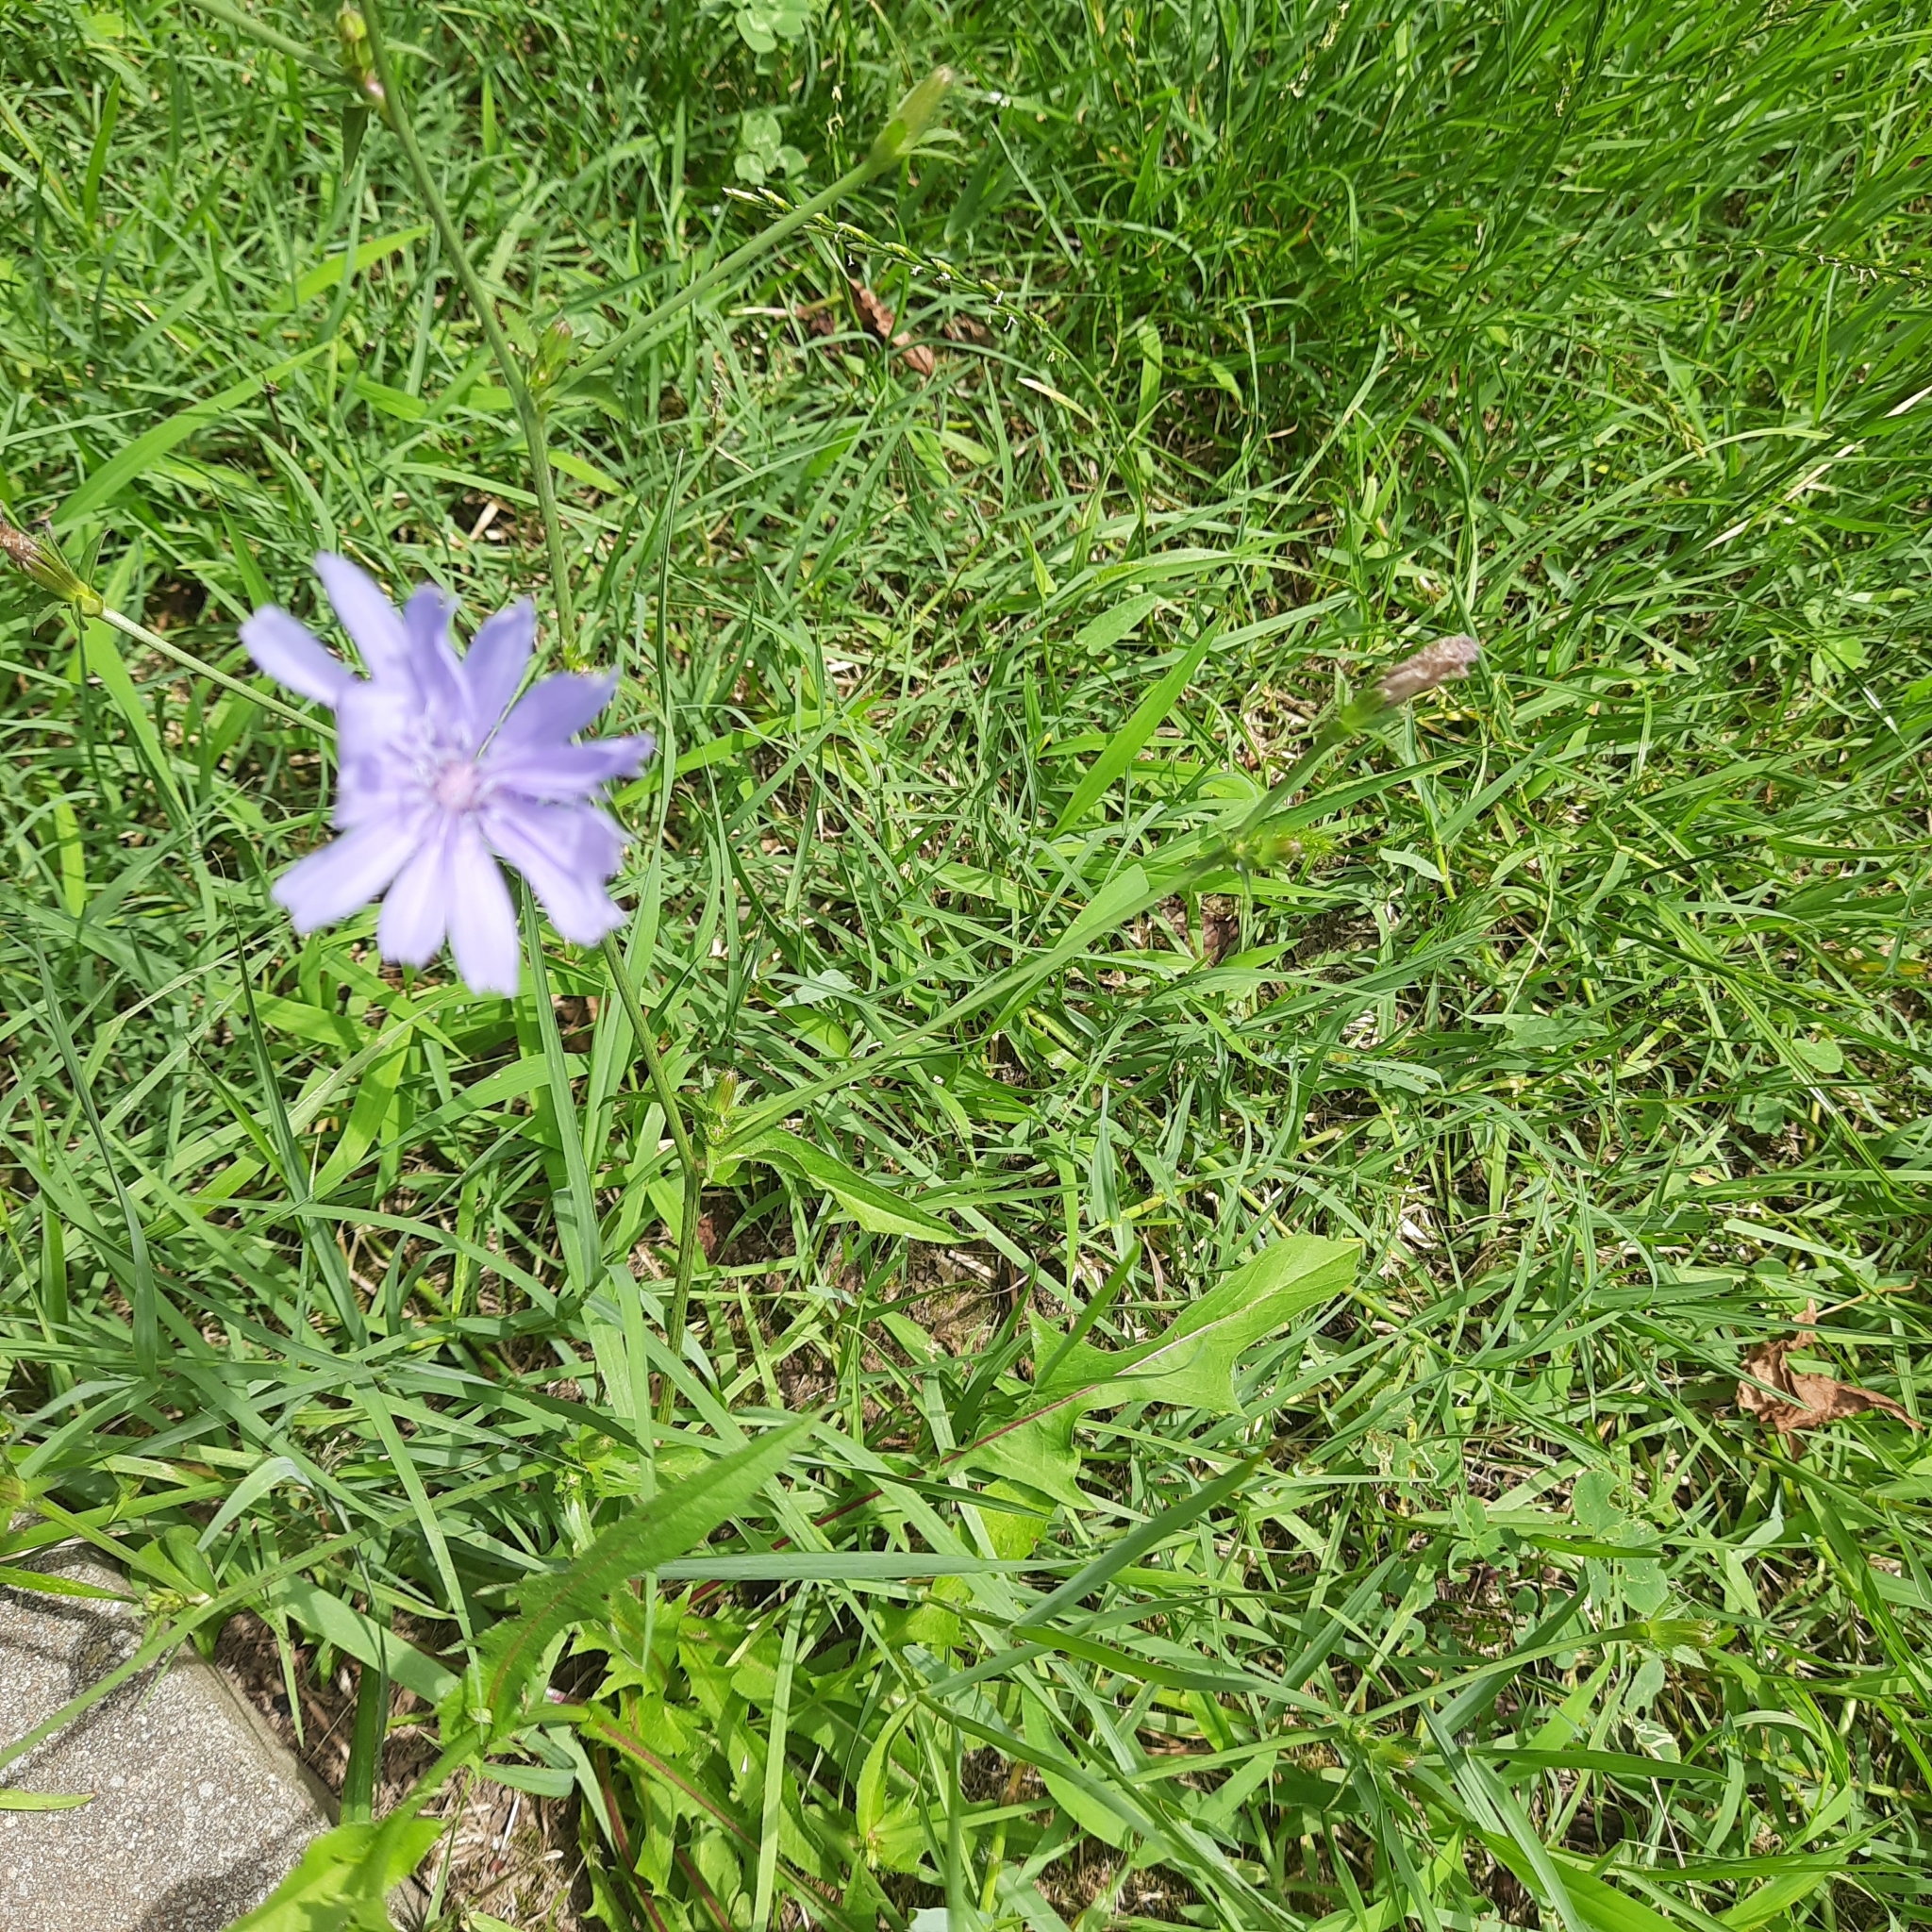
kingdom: Plantae
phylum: Tracheophyta
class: Magnoliopsida
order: Asterales
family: Asteraceae
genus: Cichorium
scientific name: Cichorium intybus
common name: Chicory
